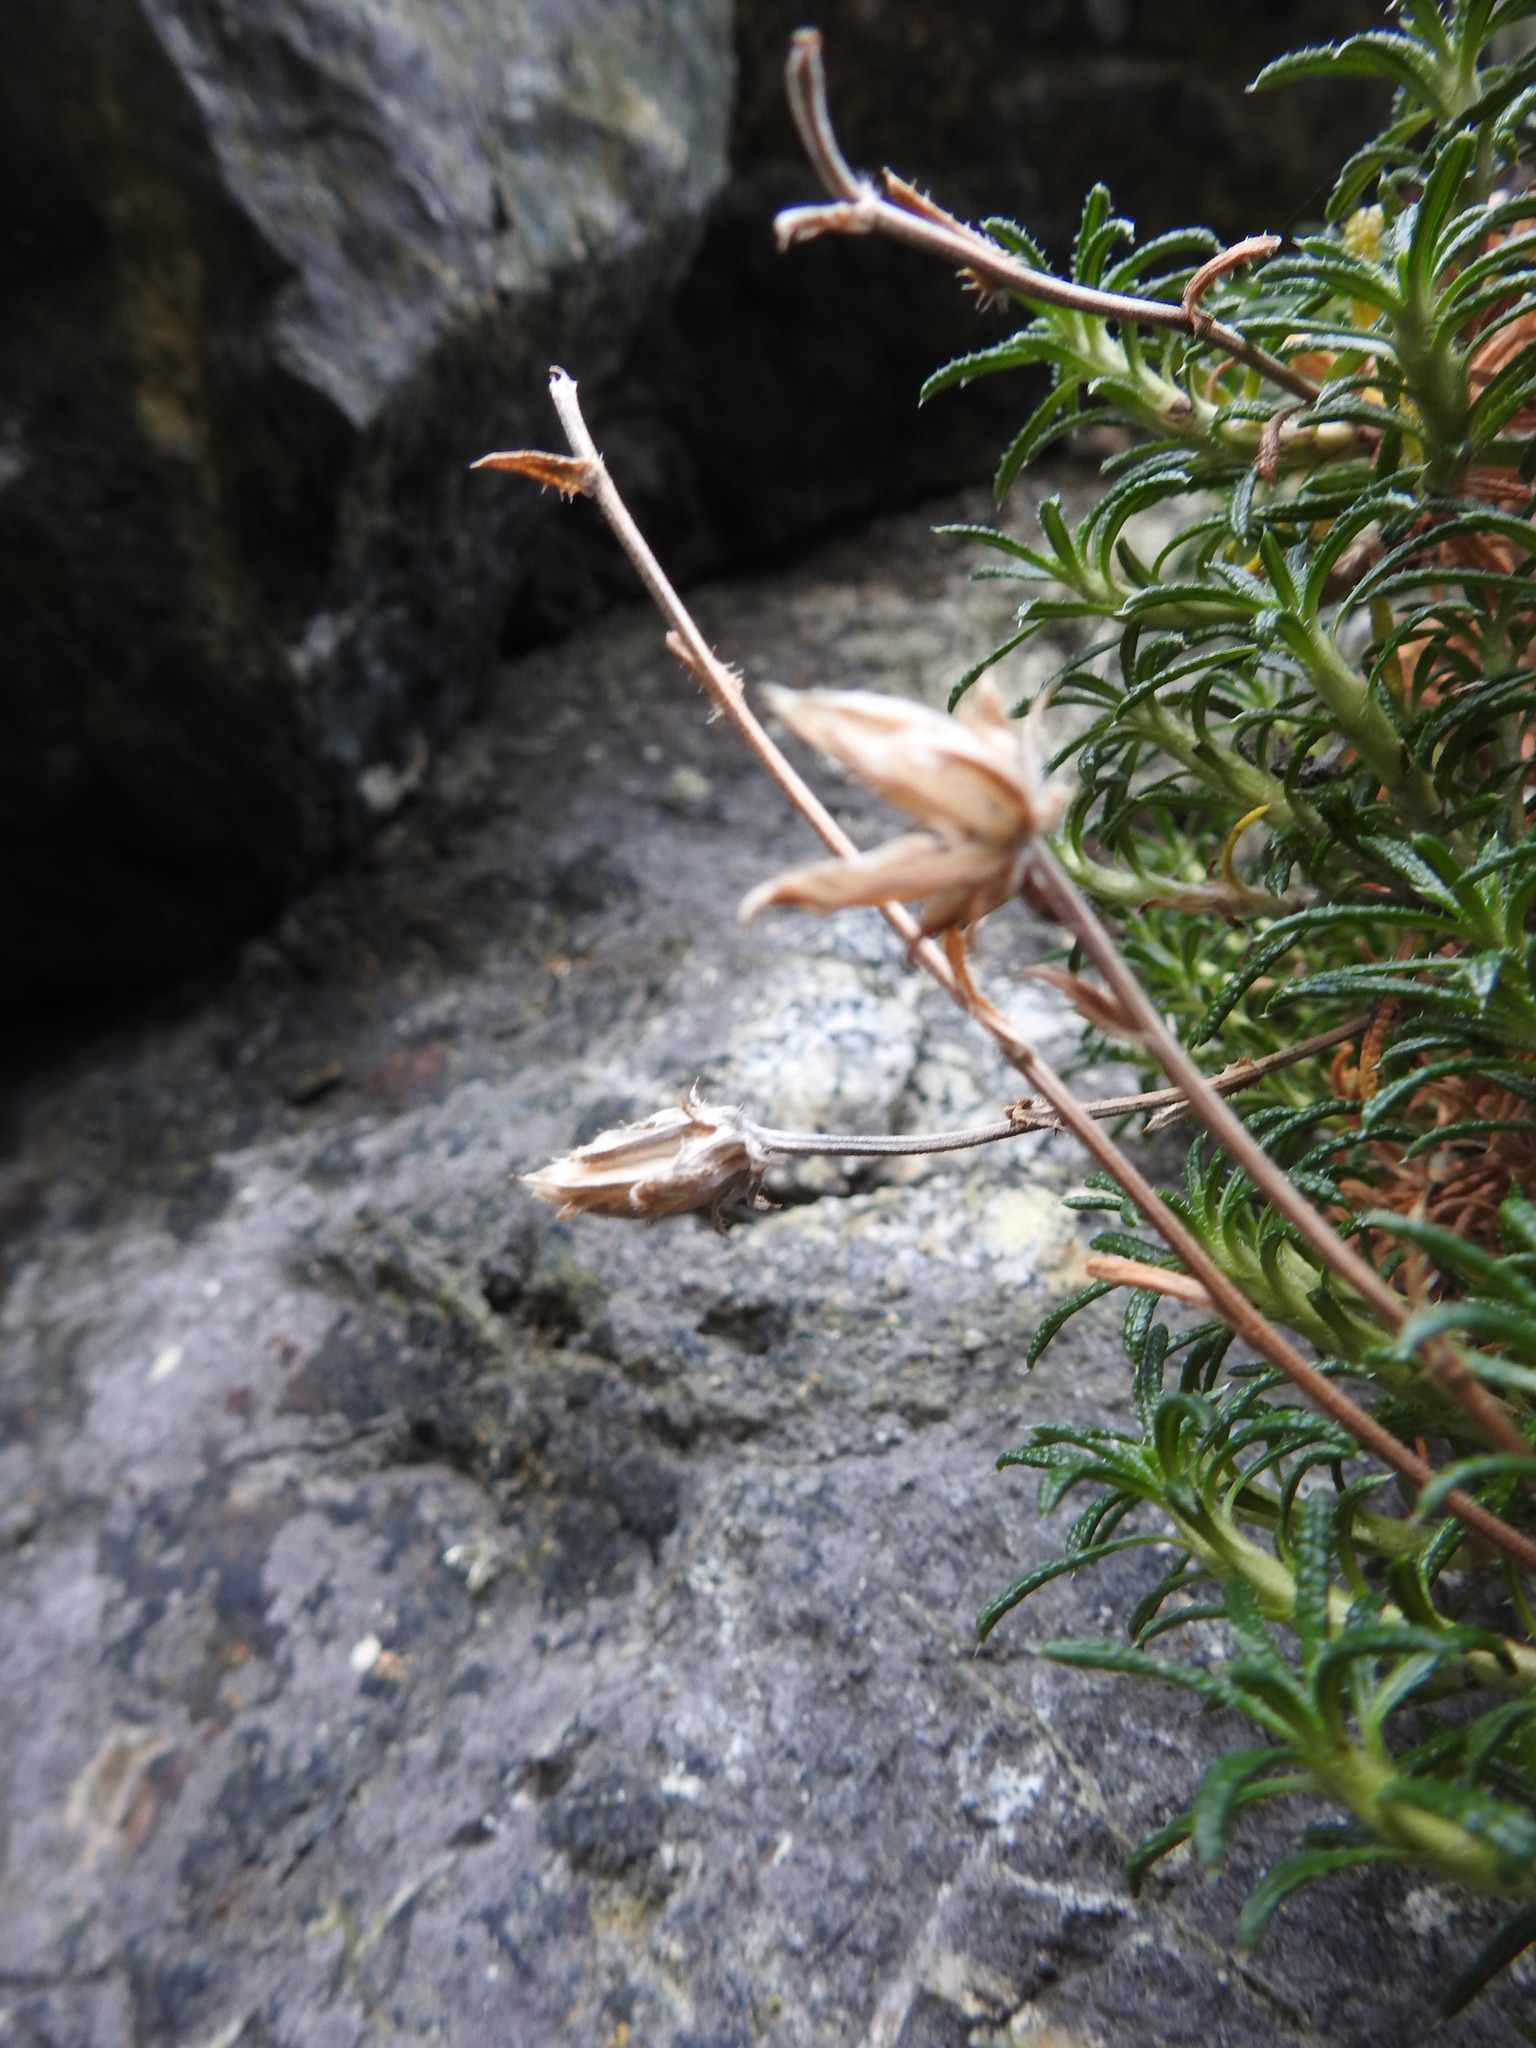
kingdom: Plantae
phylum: Tracheophyta
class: Magnoliopsida
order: Asterales
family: Asteraceae
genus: Perezia
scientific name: Perezia recurvata
